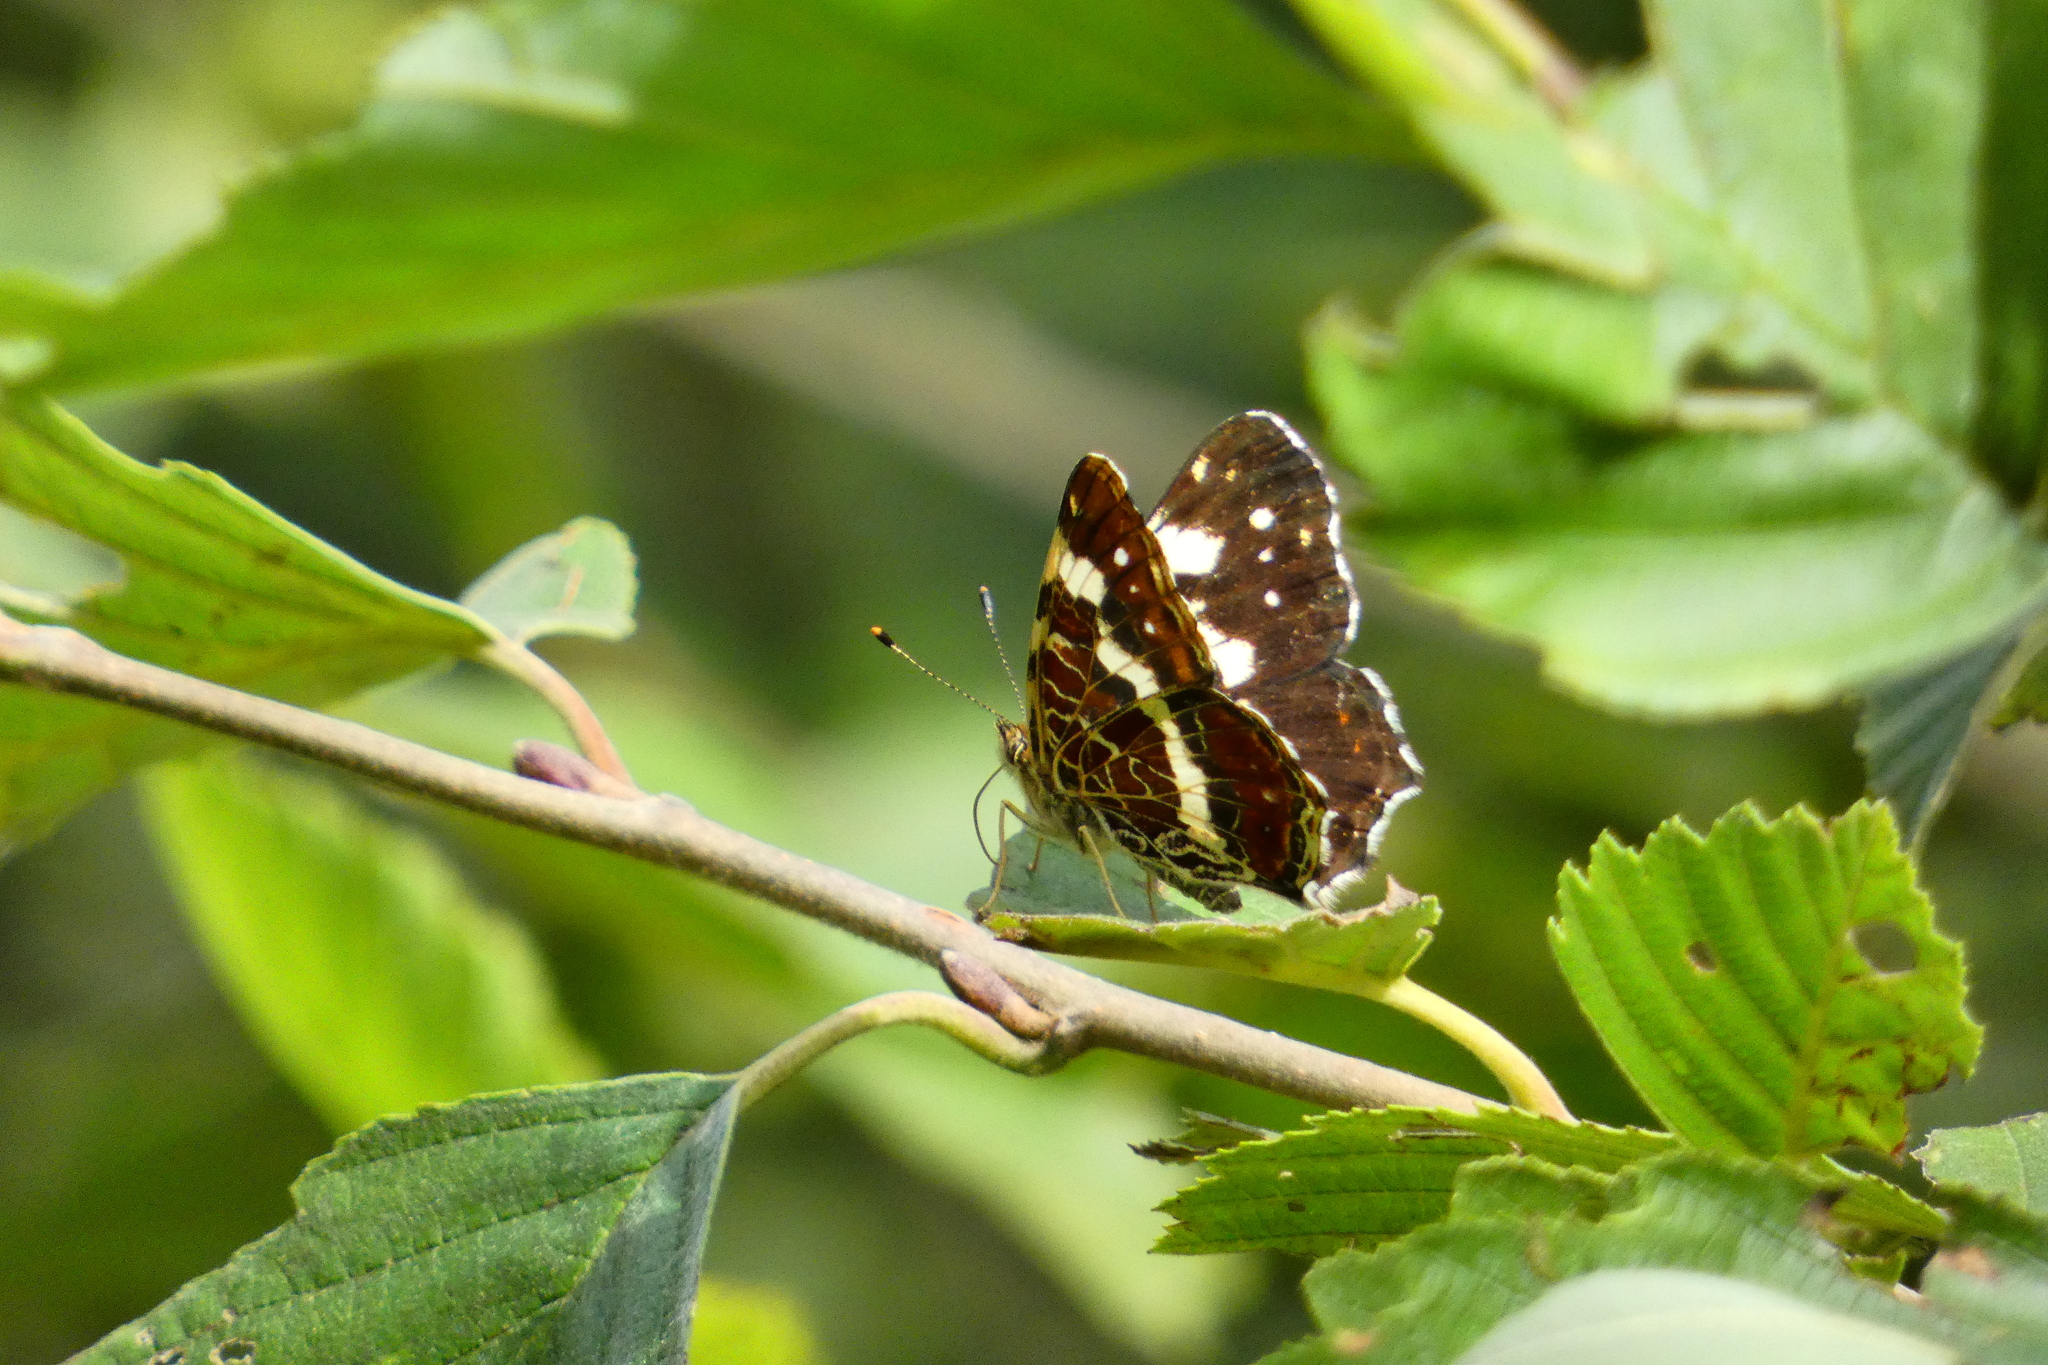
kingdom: Animalia
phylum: Arthropoda
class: Insecta
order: Lepidoptera
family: Nymphalidae
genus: Araschnia
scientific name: Araschnia levana
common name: Map butterfly
